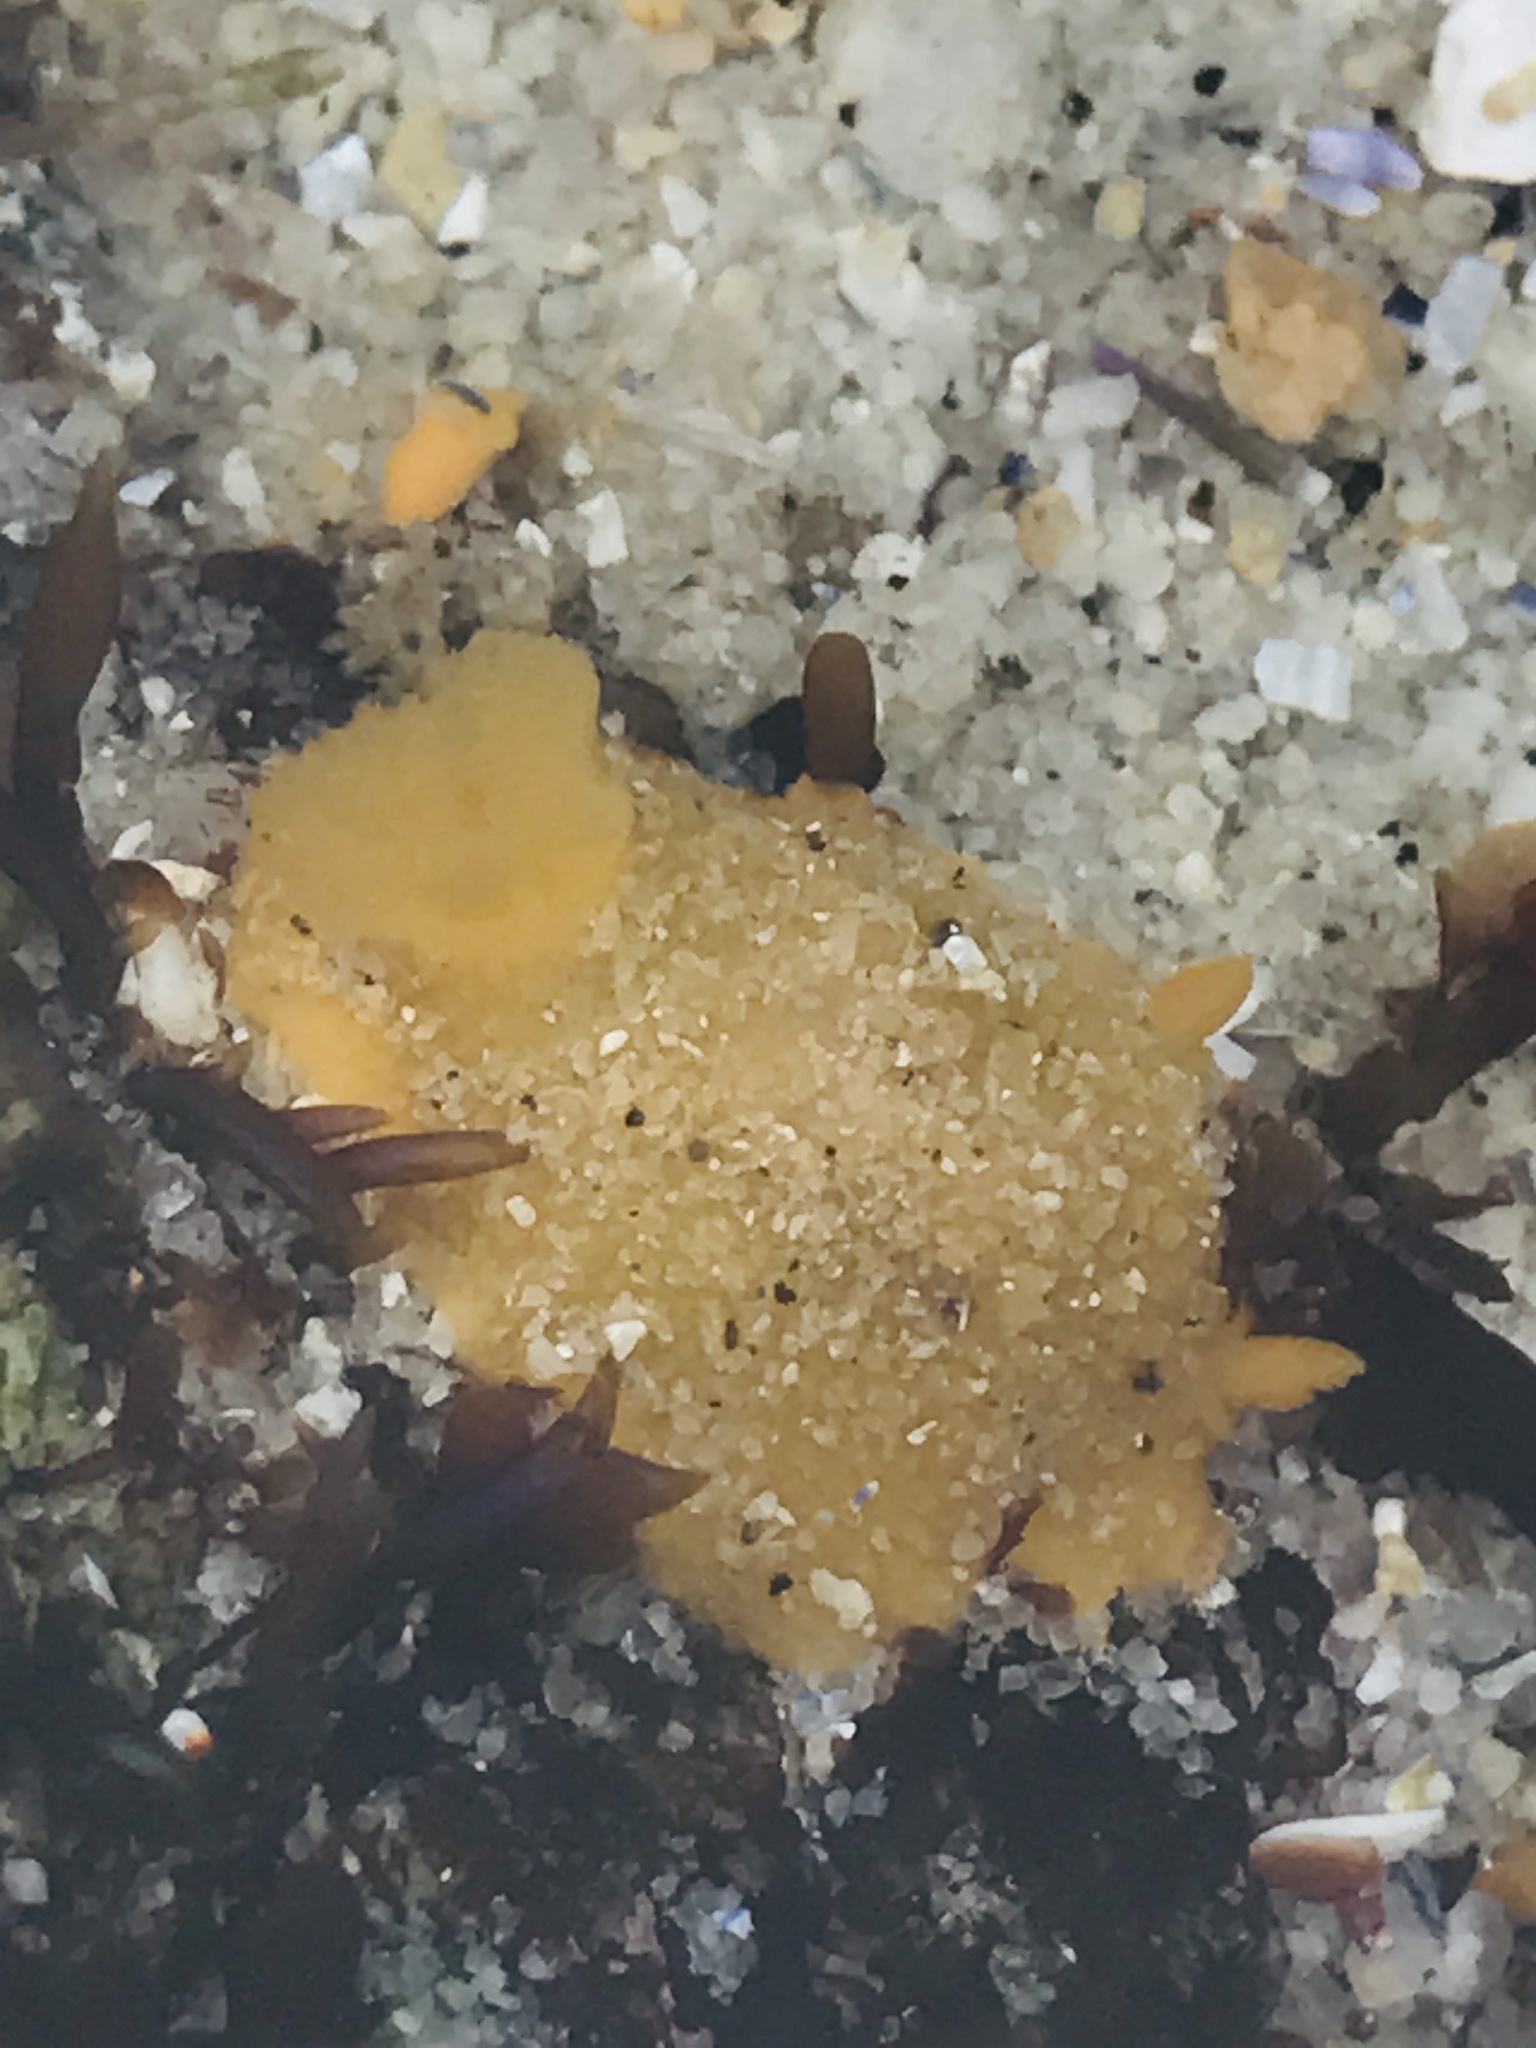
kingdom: Animalia
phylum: Mollusca
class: Gastropoda
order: Nudibranchia
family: Dorididae
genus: Doris
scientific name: Doris montereyensis
